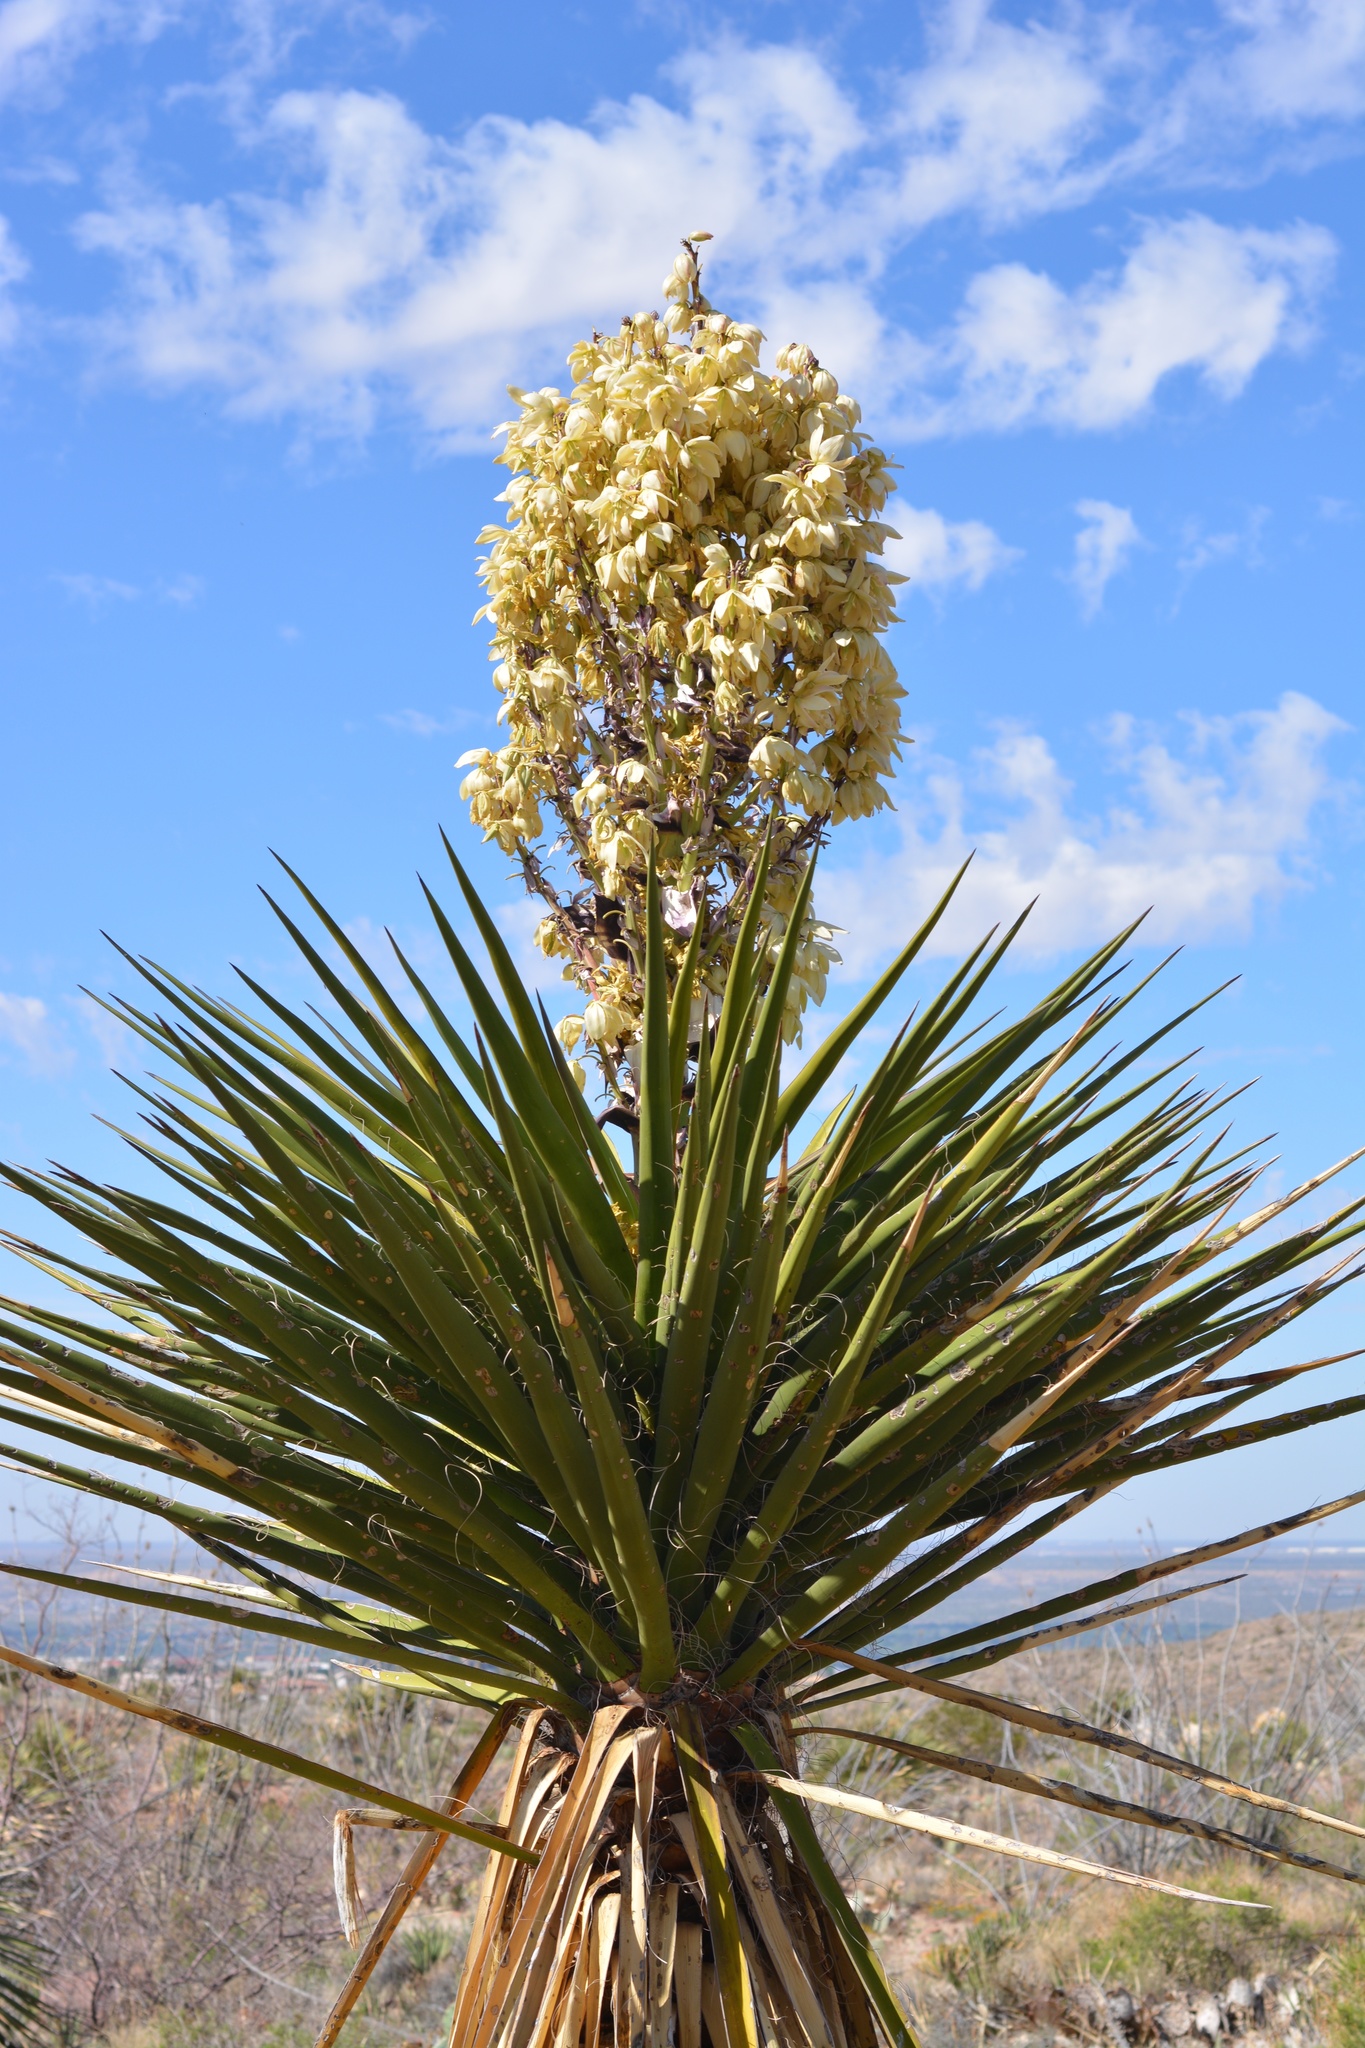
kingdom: Plantae
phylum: Tracheophyta
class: Liliopsida
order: Asparagales
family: Asparagaceae
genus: Yucca
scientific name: Yucca treculiana
